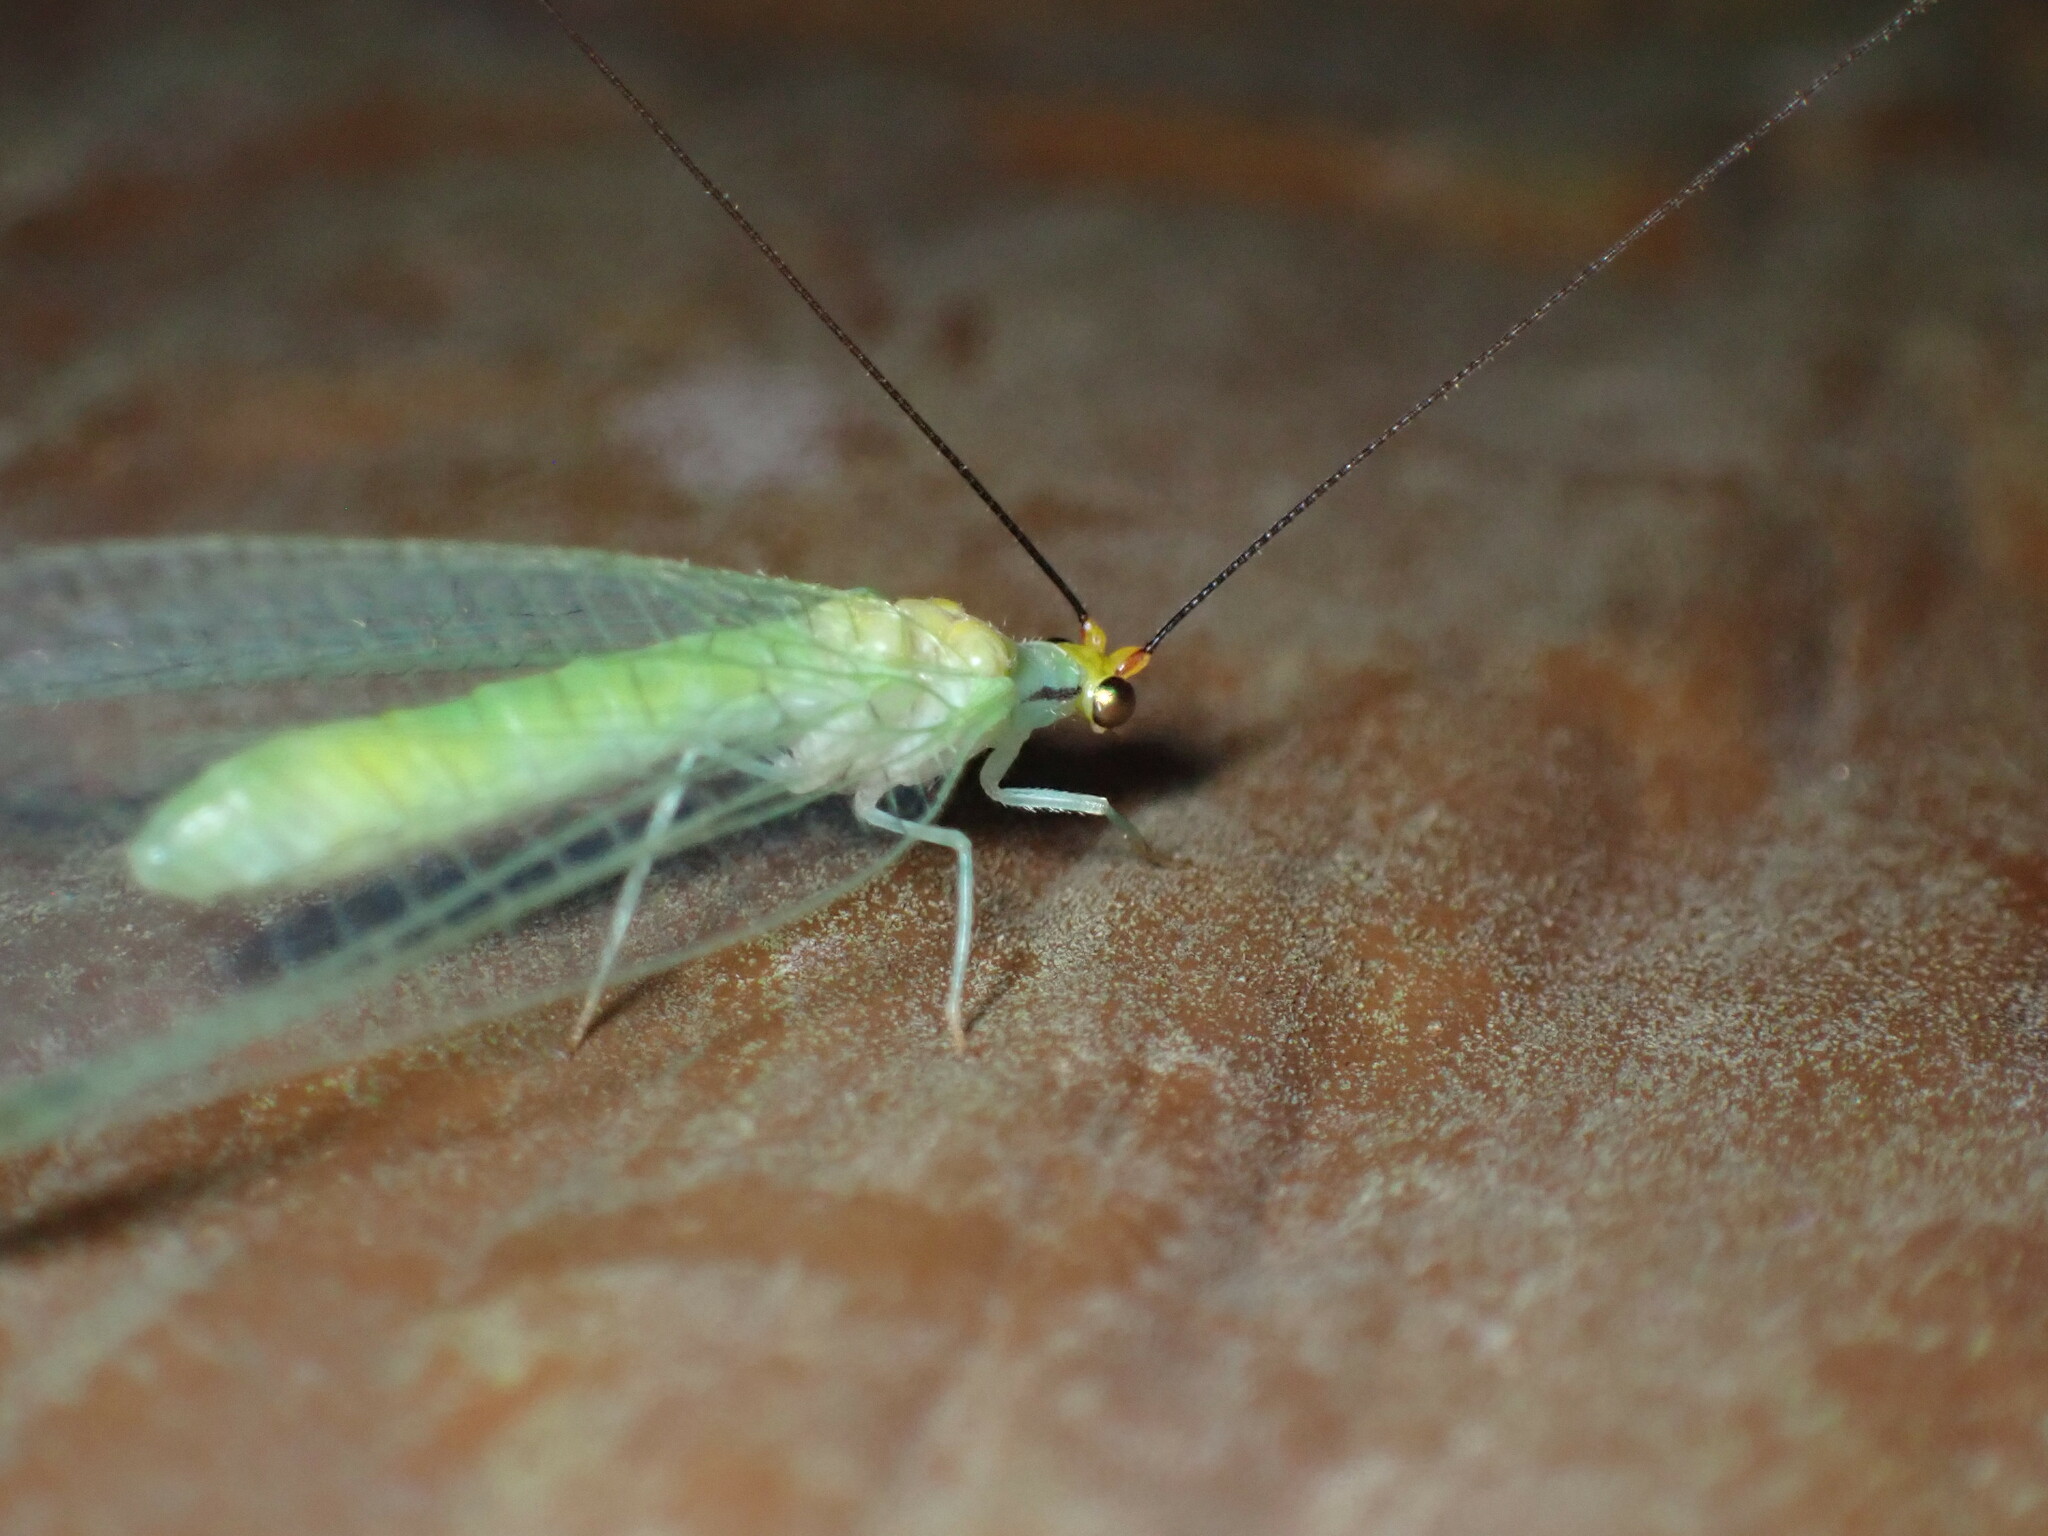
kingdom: Animalia
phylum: Arthropoda
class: Insecta
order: Neuroptera
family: Chrysopidae
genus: Leucochrysa
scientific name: Leucochrysa pavida
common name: Lichen-carrying green lacewing
